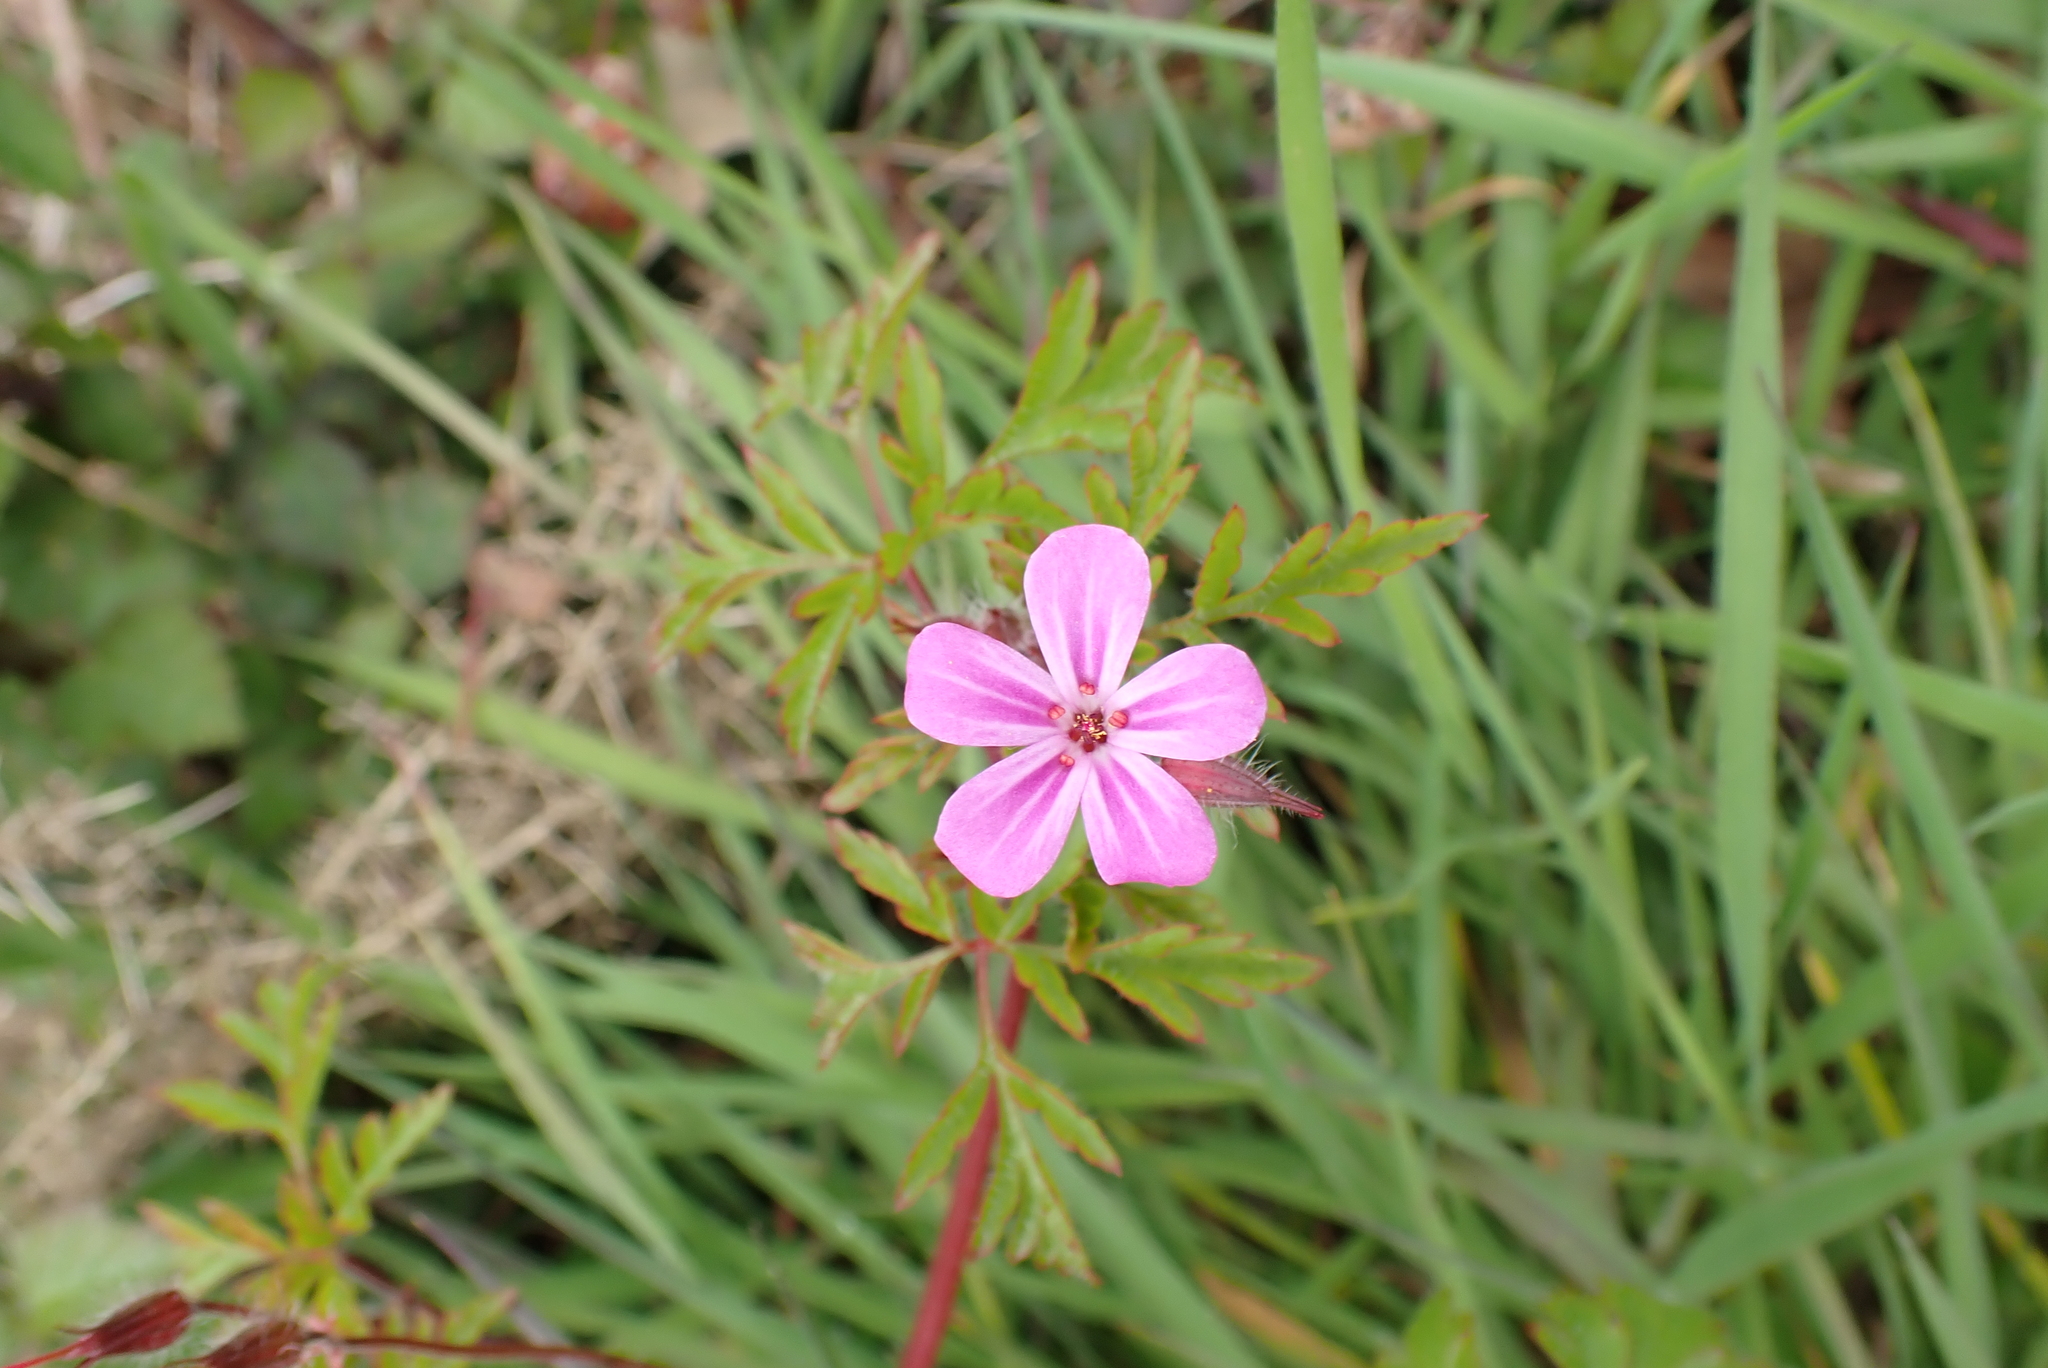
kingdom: Plantae
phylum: Tracheophyta
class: Magnoliopsida
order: Geraniales
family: Geraniaceae
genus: Geranium
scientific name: Geranium robertianum
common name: Herb-robert
